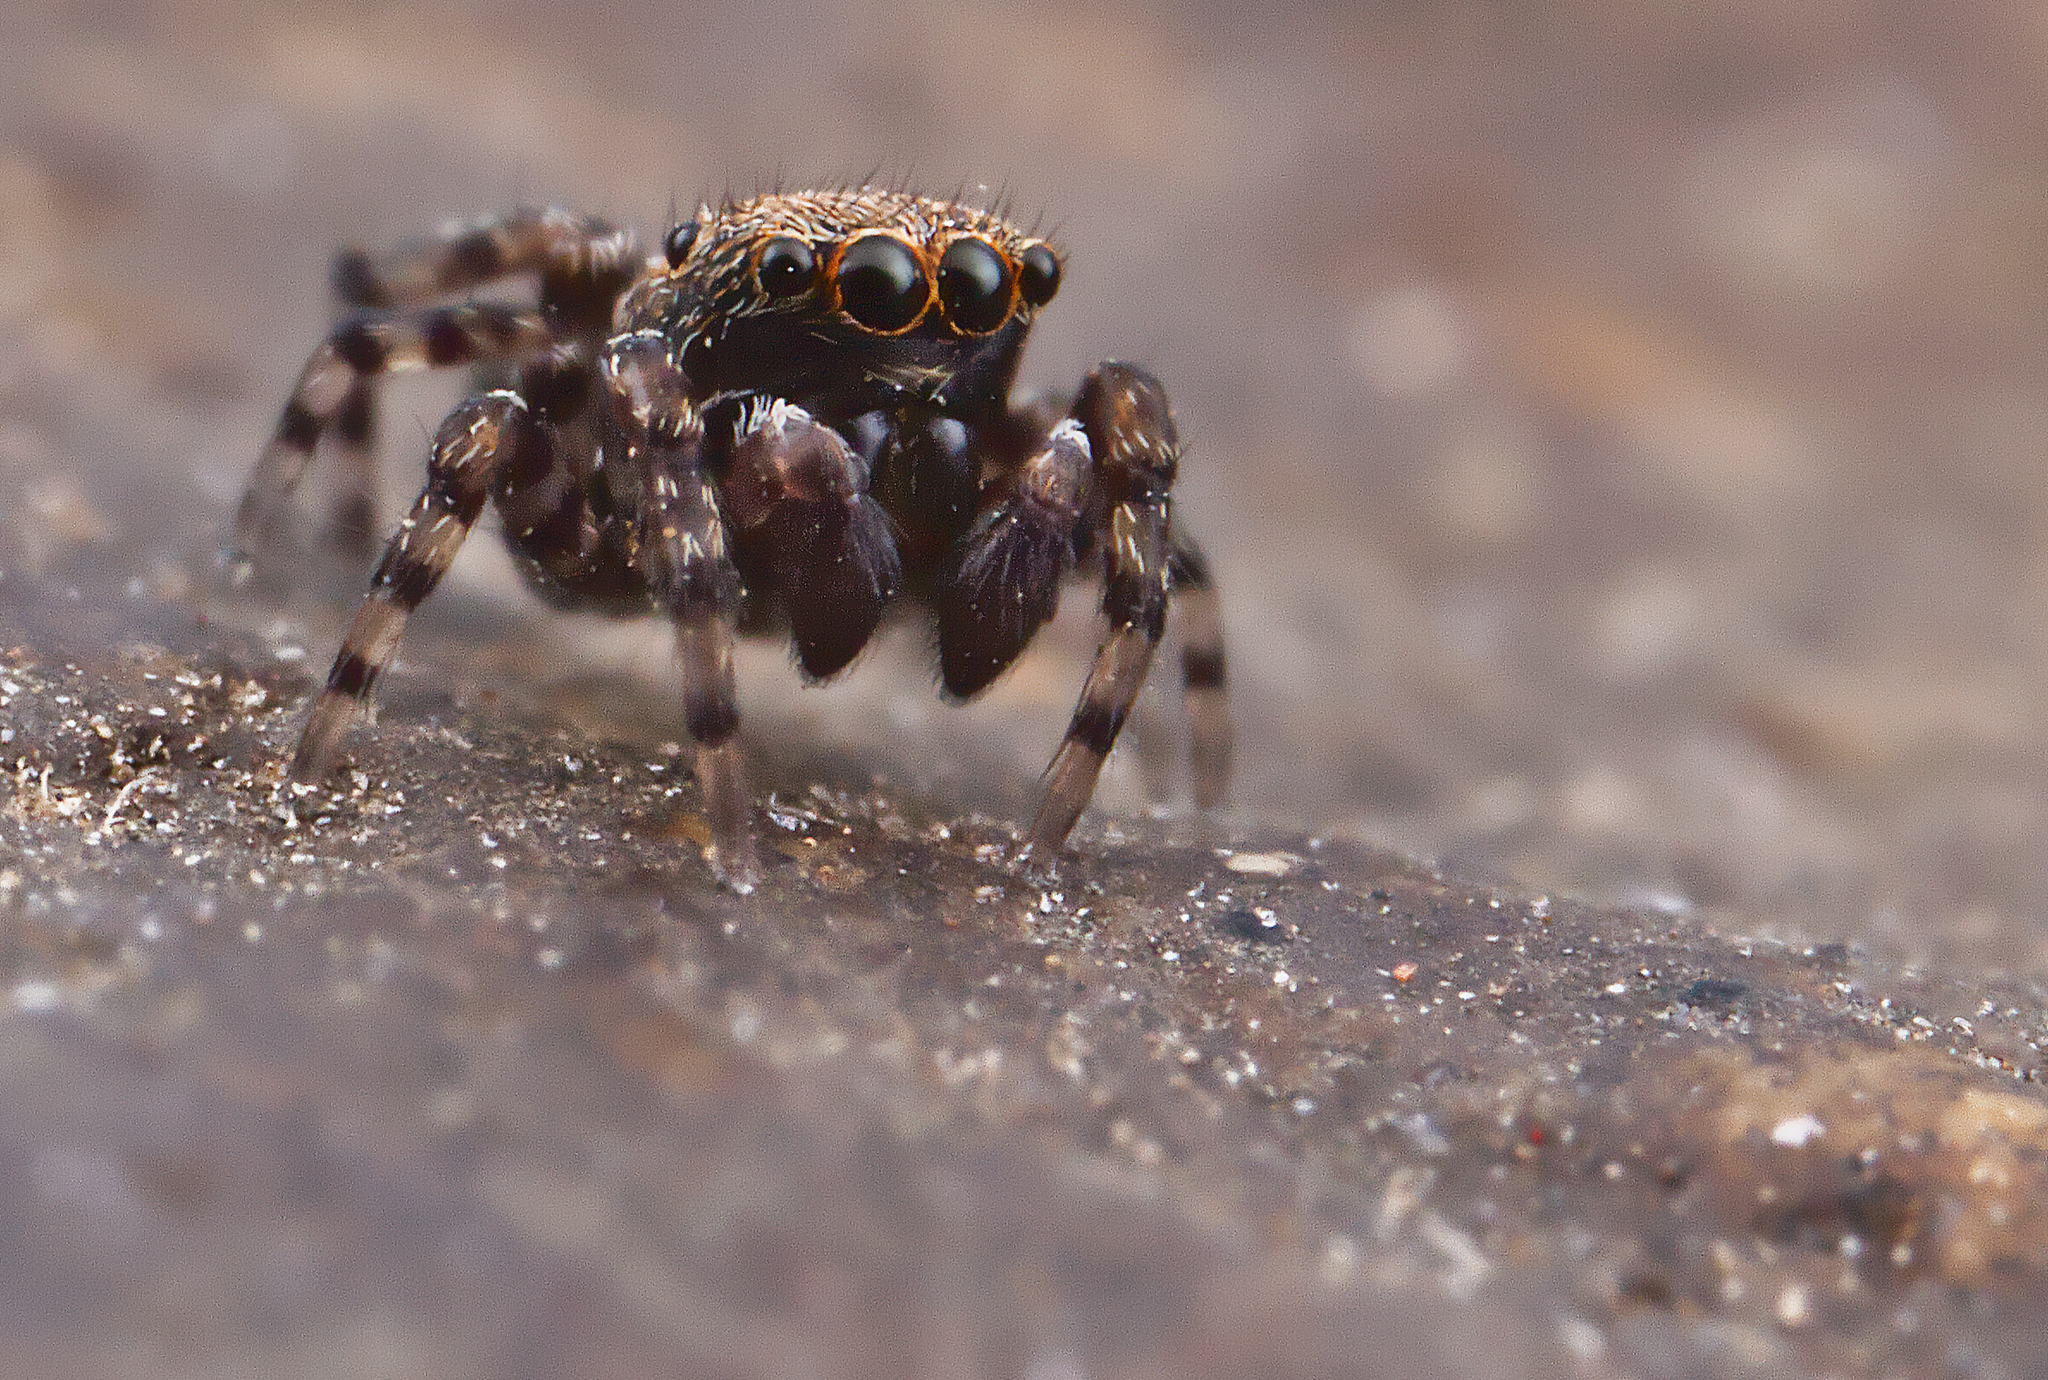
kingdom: Animalia
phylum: Arthropoda
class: Arachnida
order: Araneae
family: Salticidae
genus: Attinella
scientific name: Attinella concolor
